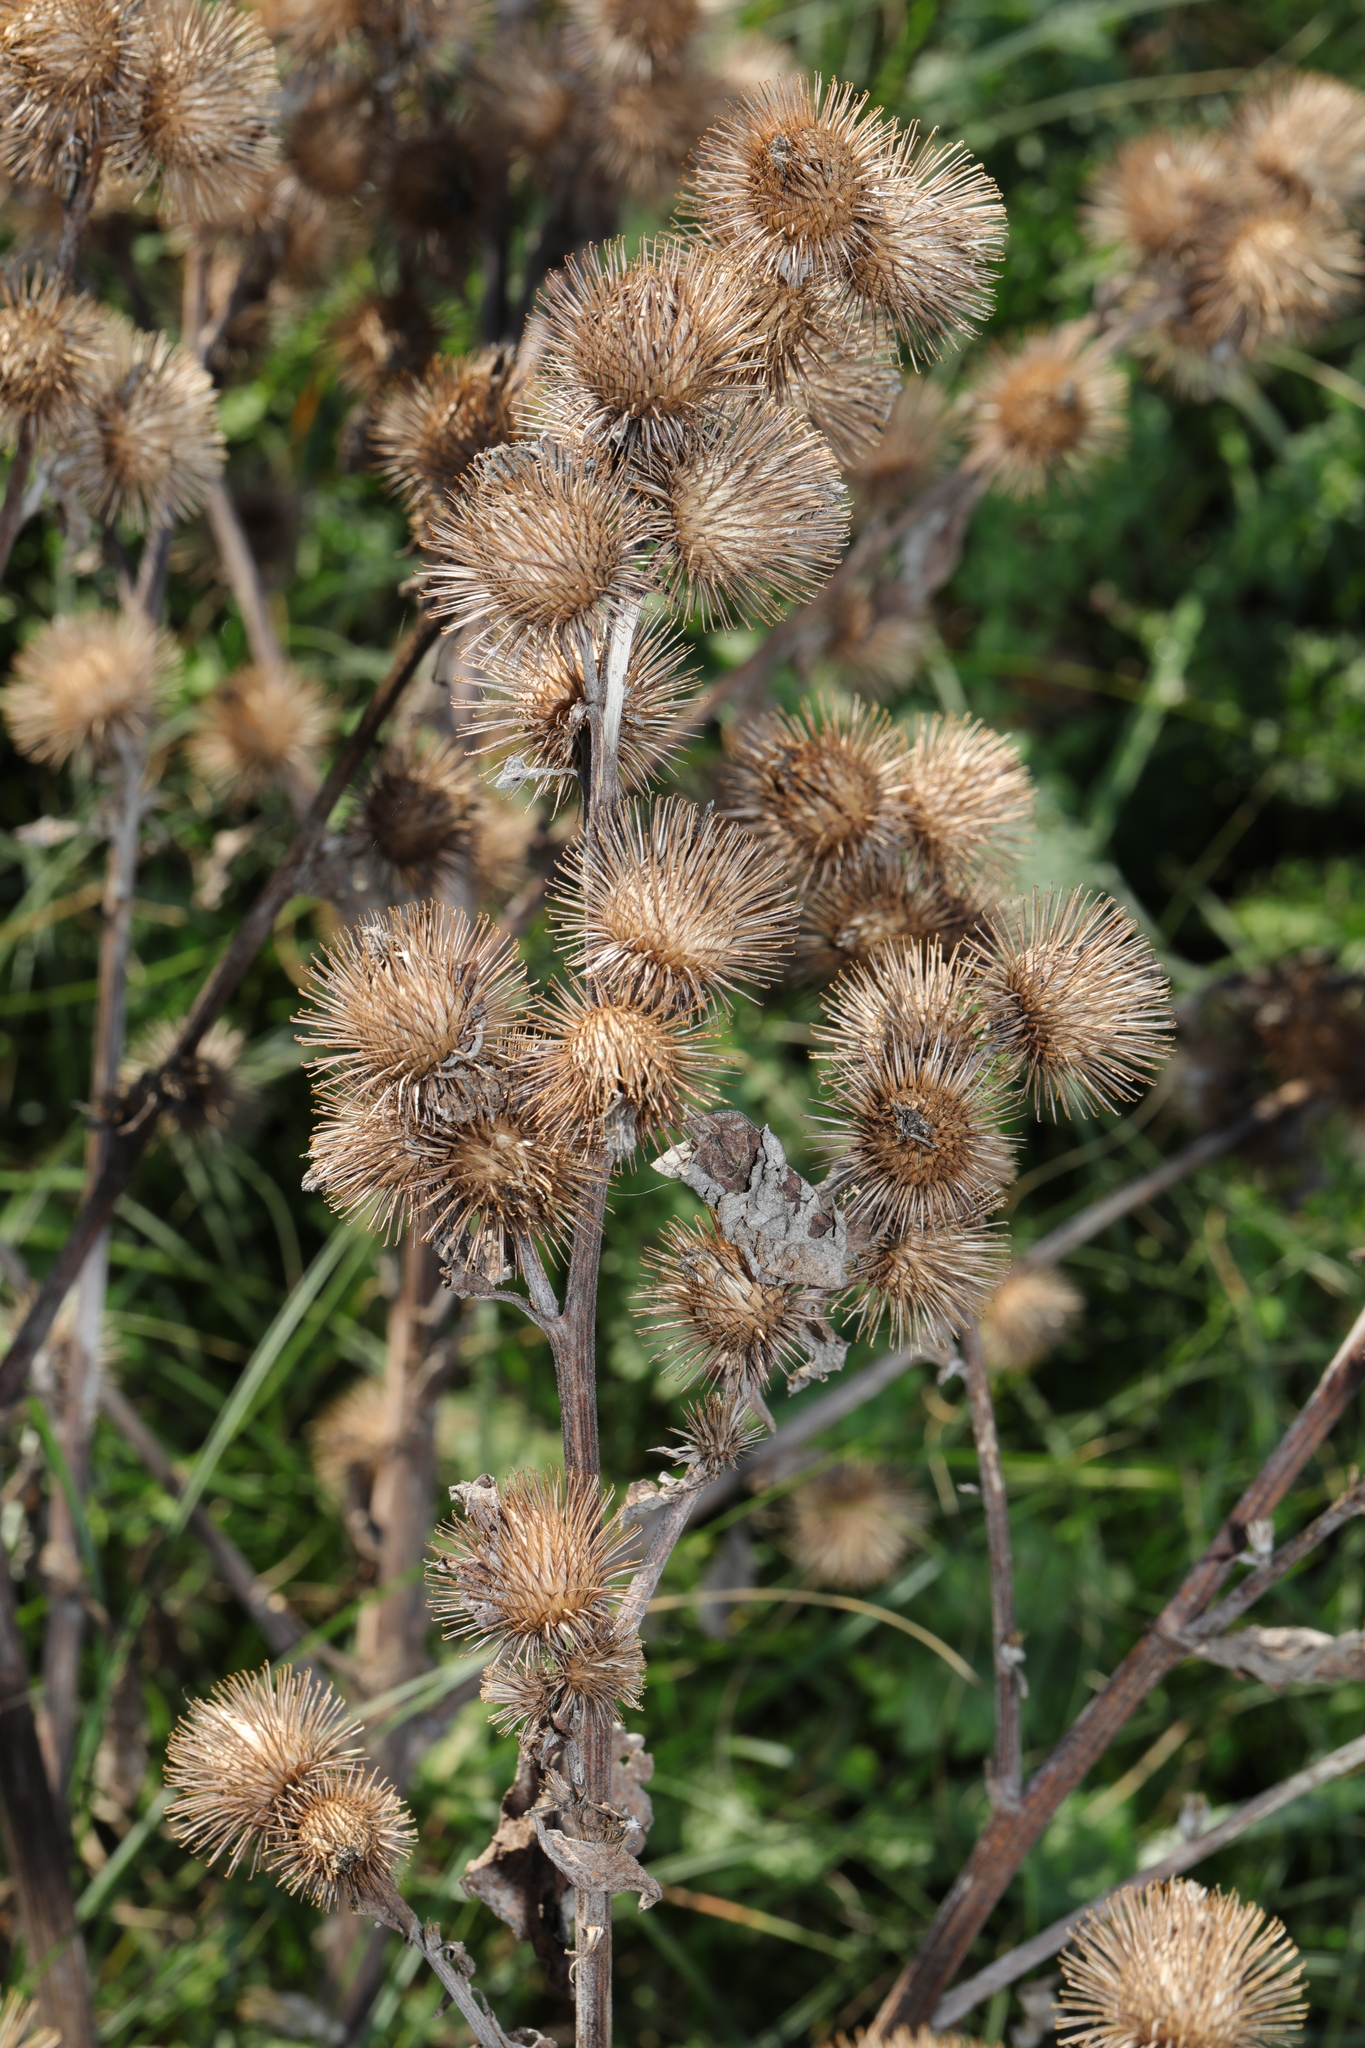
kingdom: Plantae
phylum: Tracheophyta
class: Magnoliopsida
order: Asterales
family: Asteraceae
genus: Arctium
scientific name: Arctium minus
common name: Lesser burdock
